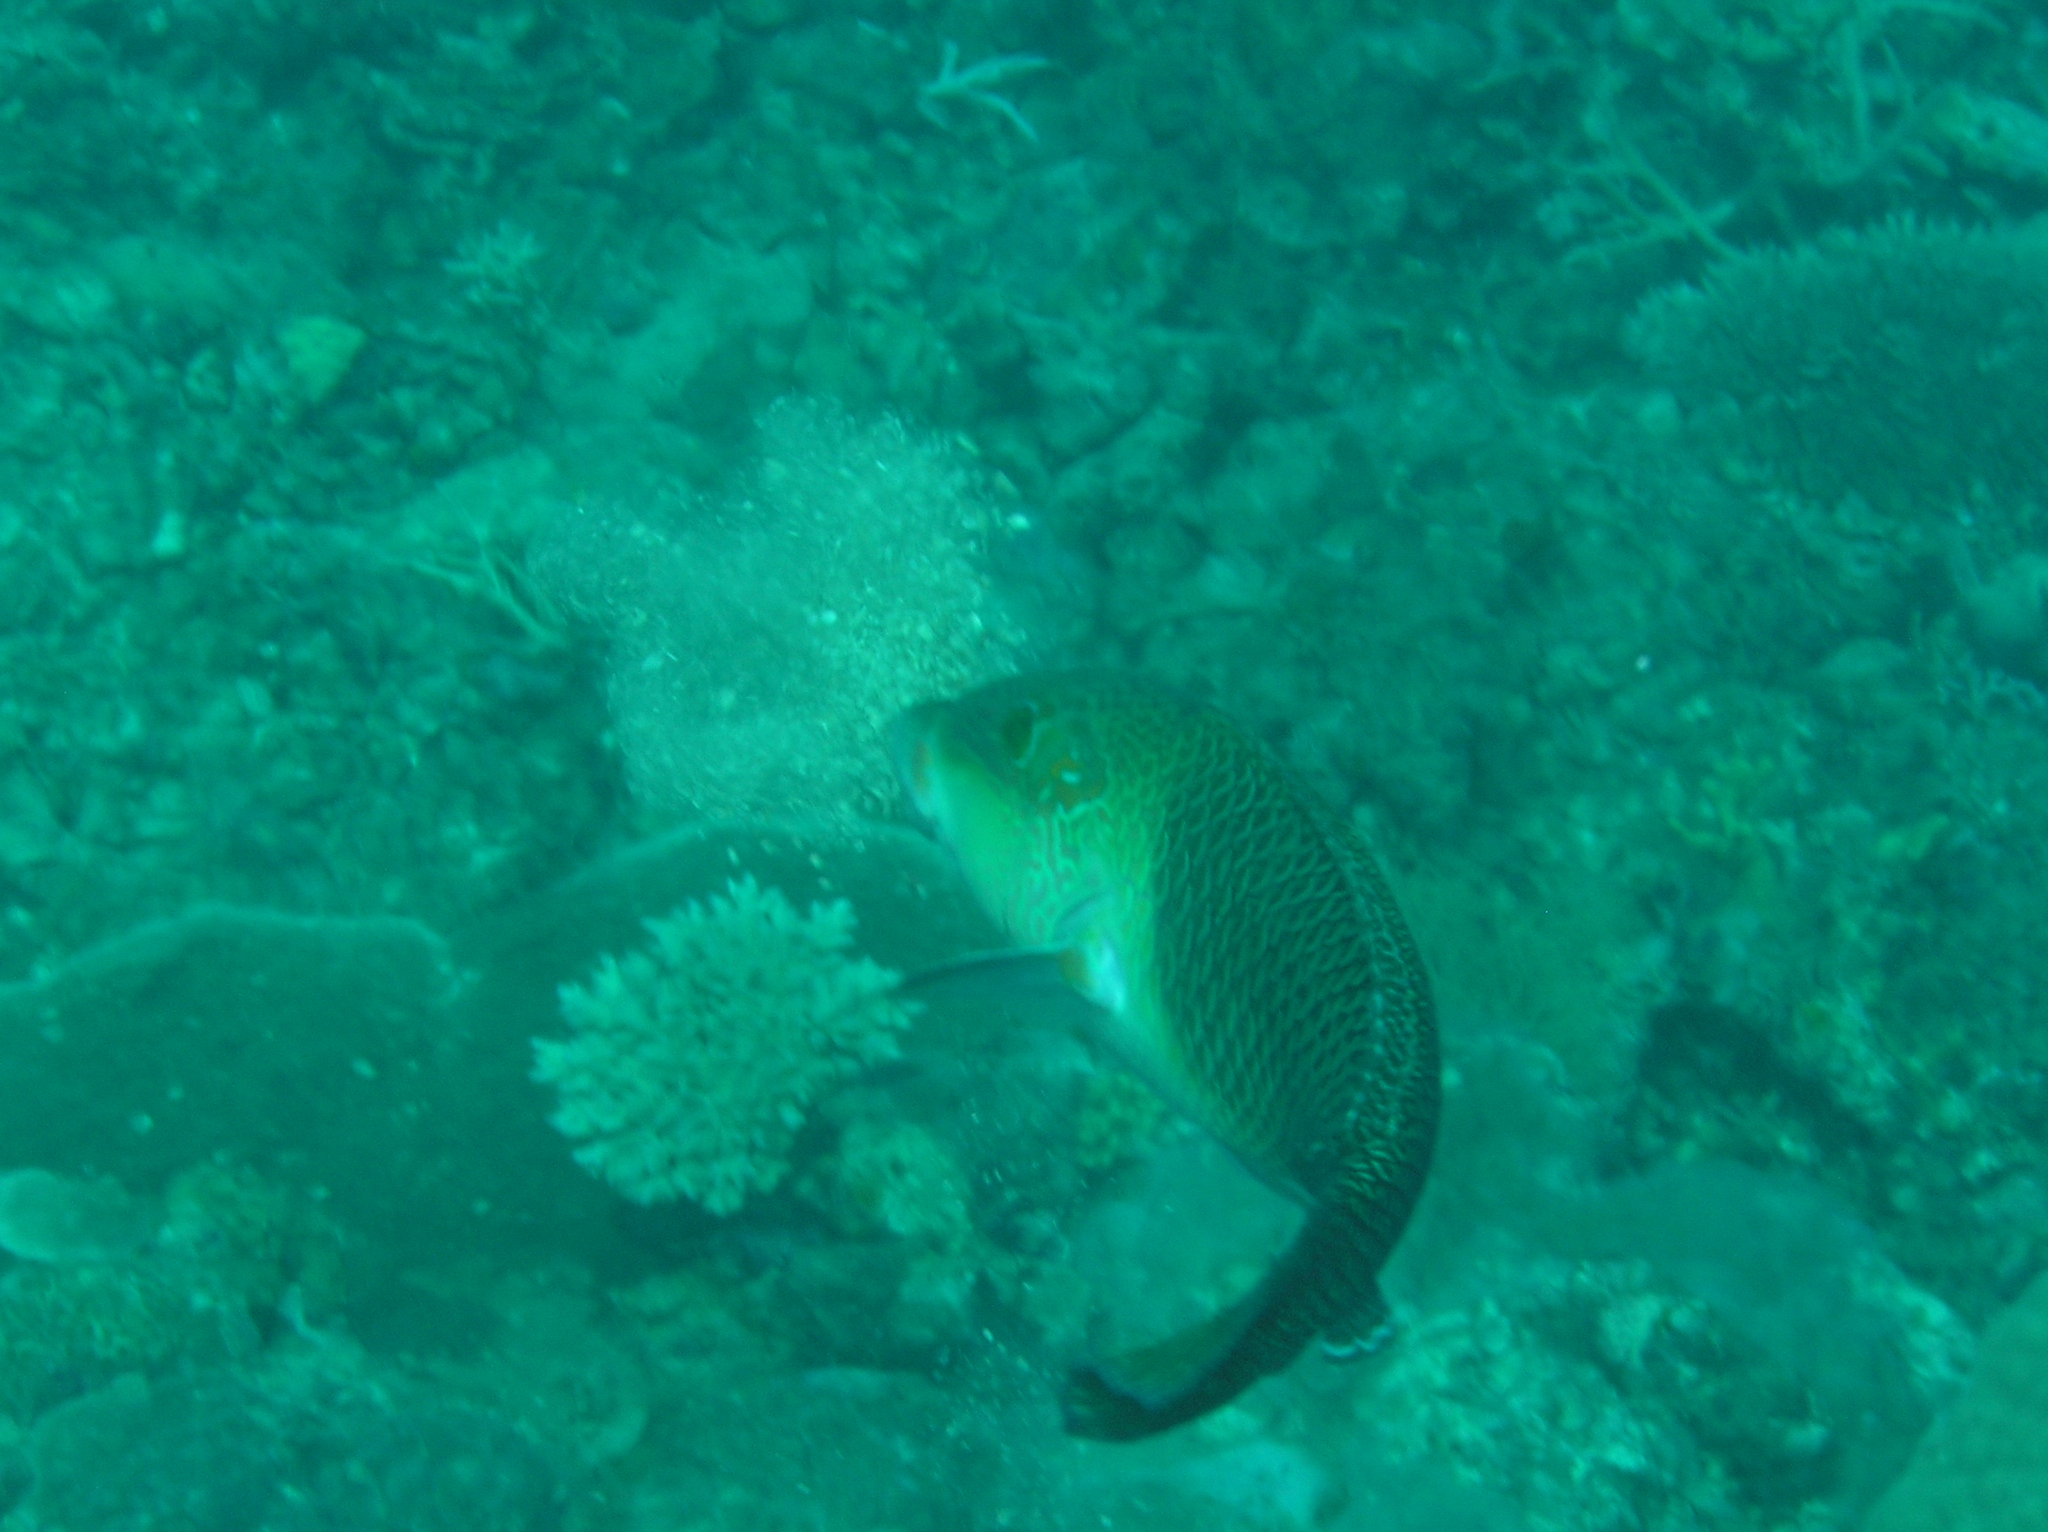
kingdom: Animalia
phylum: Chordata
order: Perciformes
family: Labridae
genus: Hemigymnus
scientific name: Hemigymnus melapterus
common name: Blackeye thicklip
